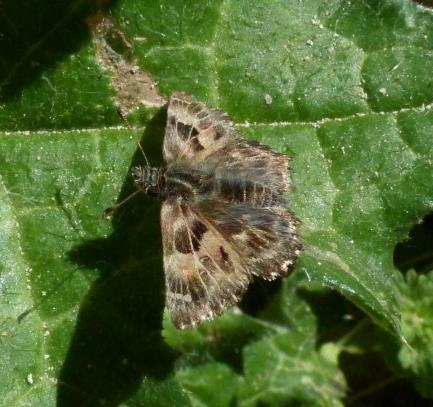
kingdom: Animalia
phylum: Arthropoda
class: Insecta
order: Lepidoptera
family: Hesperiidae
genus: Carcharodus
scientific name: Carcharodus alceae
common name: Mallow skipper
